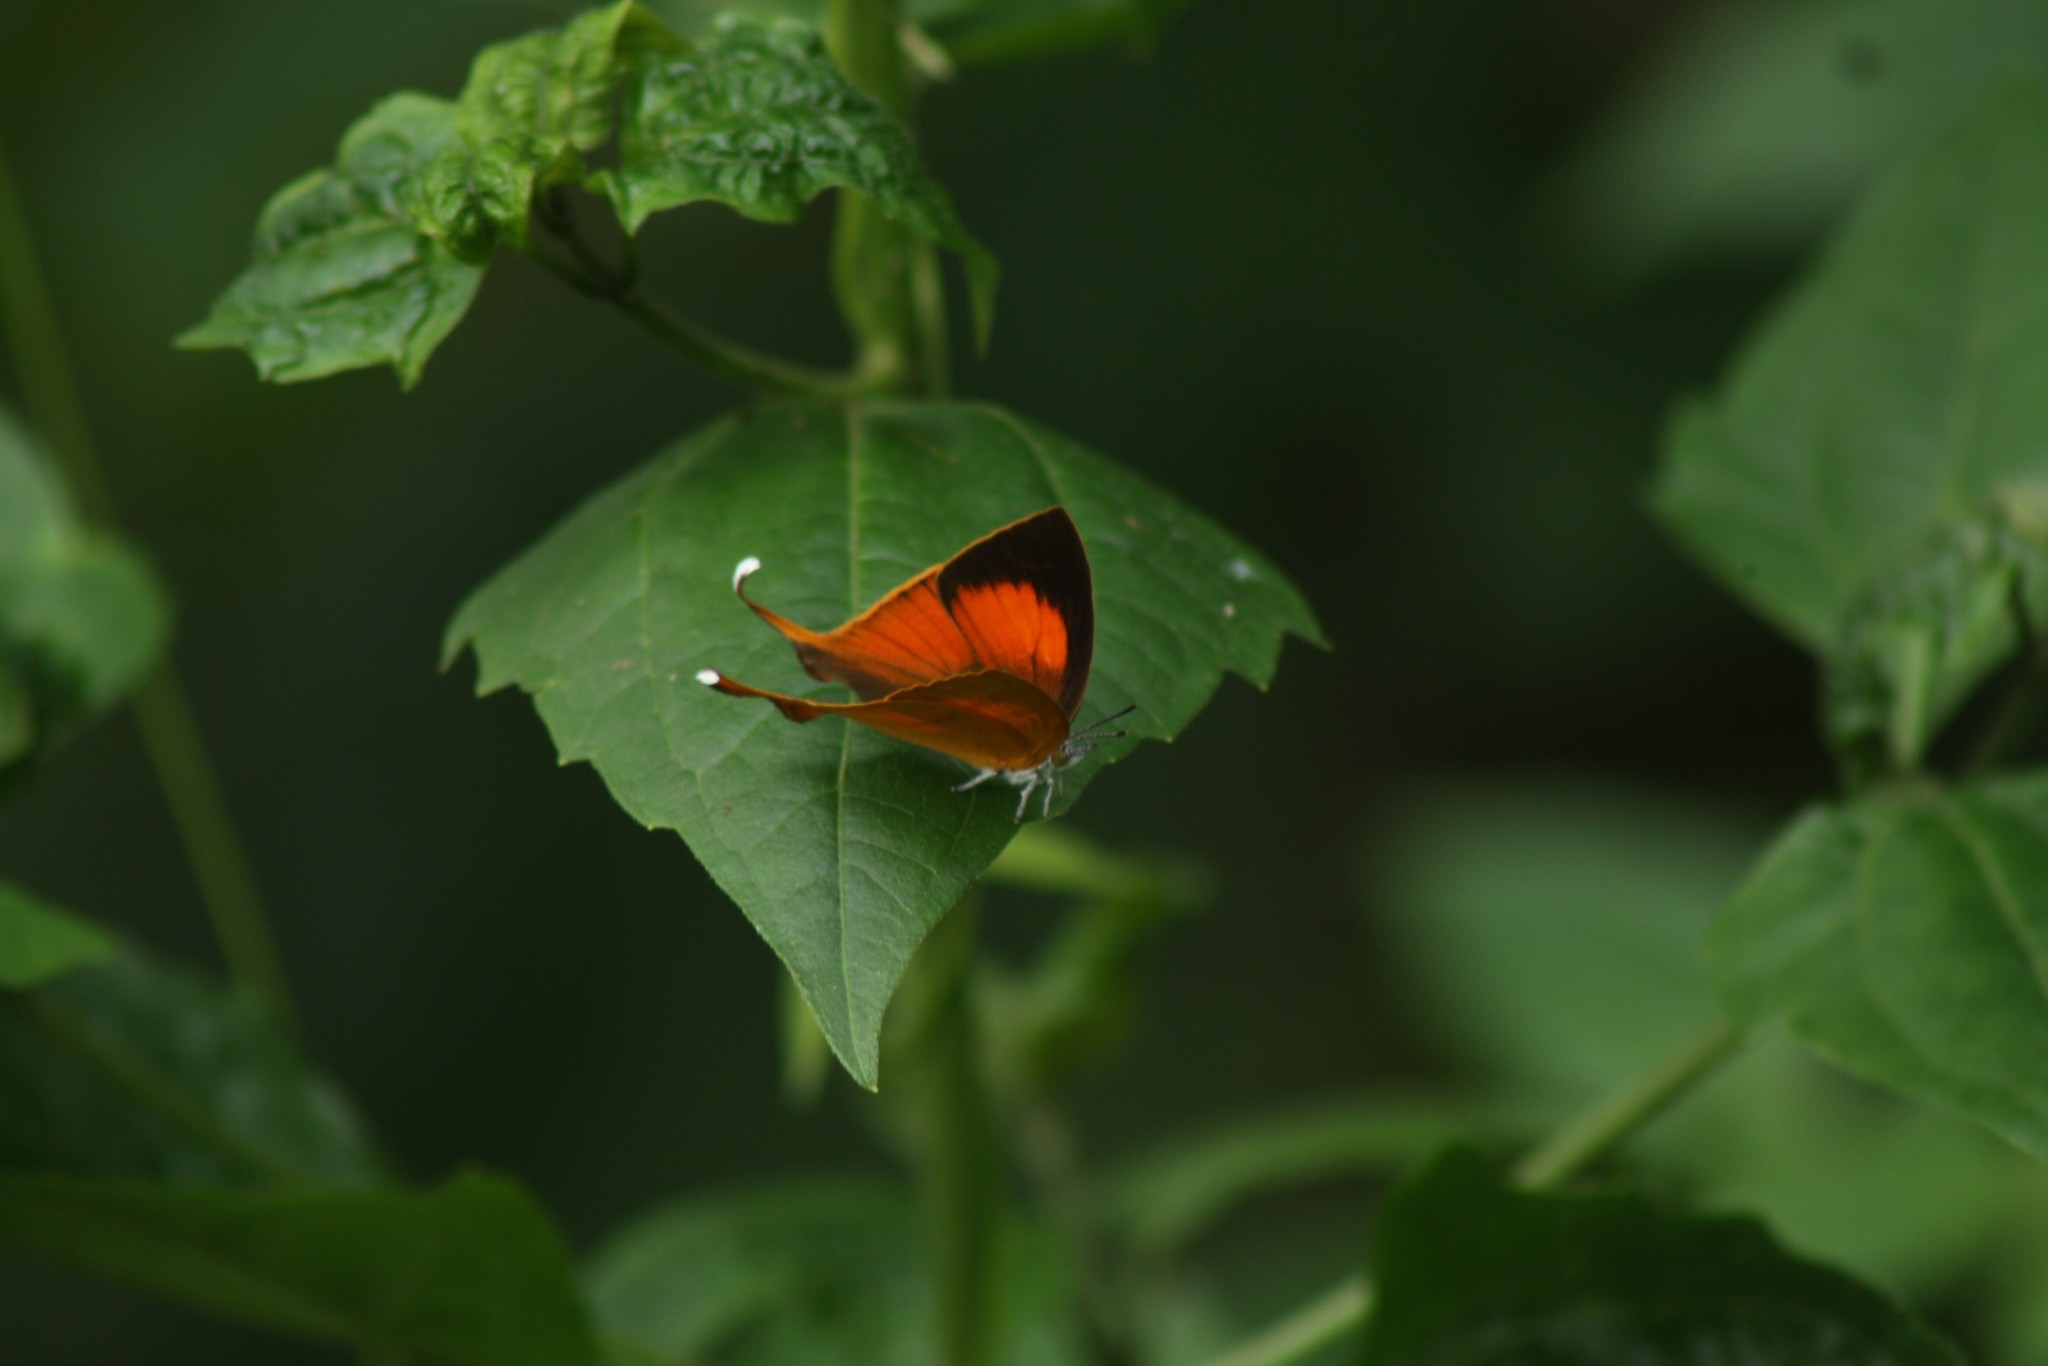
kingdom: Animalia
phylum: Arthropoda
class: Insecta
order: Lepidoptera
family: Lycaenidae
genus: Loxura
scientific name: Loxura atymnus
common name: Common yamfly
